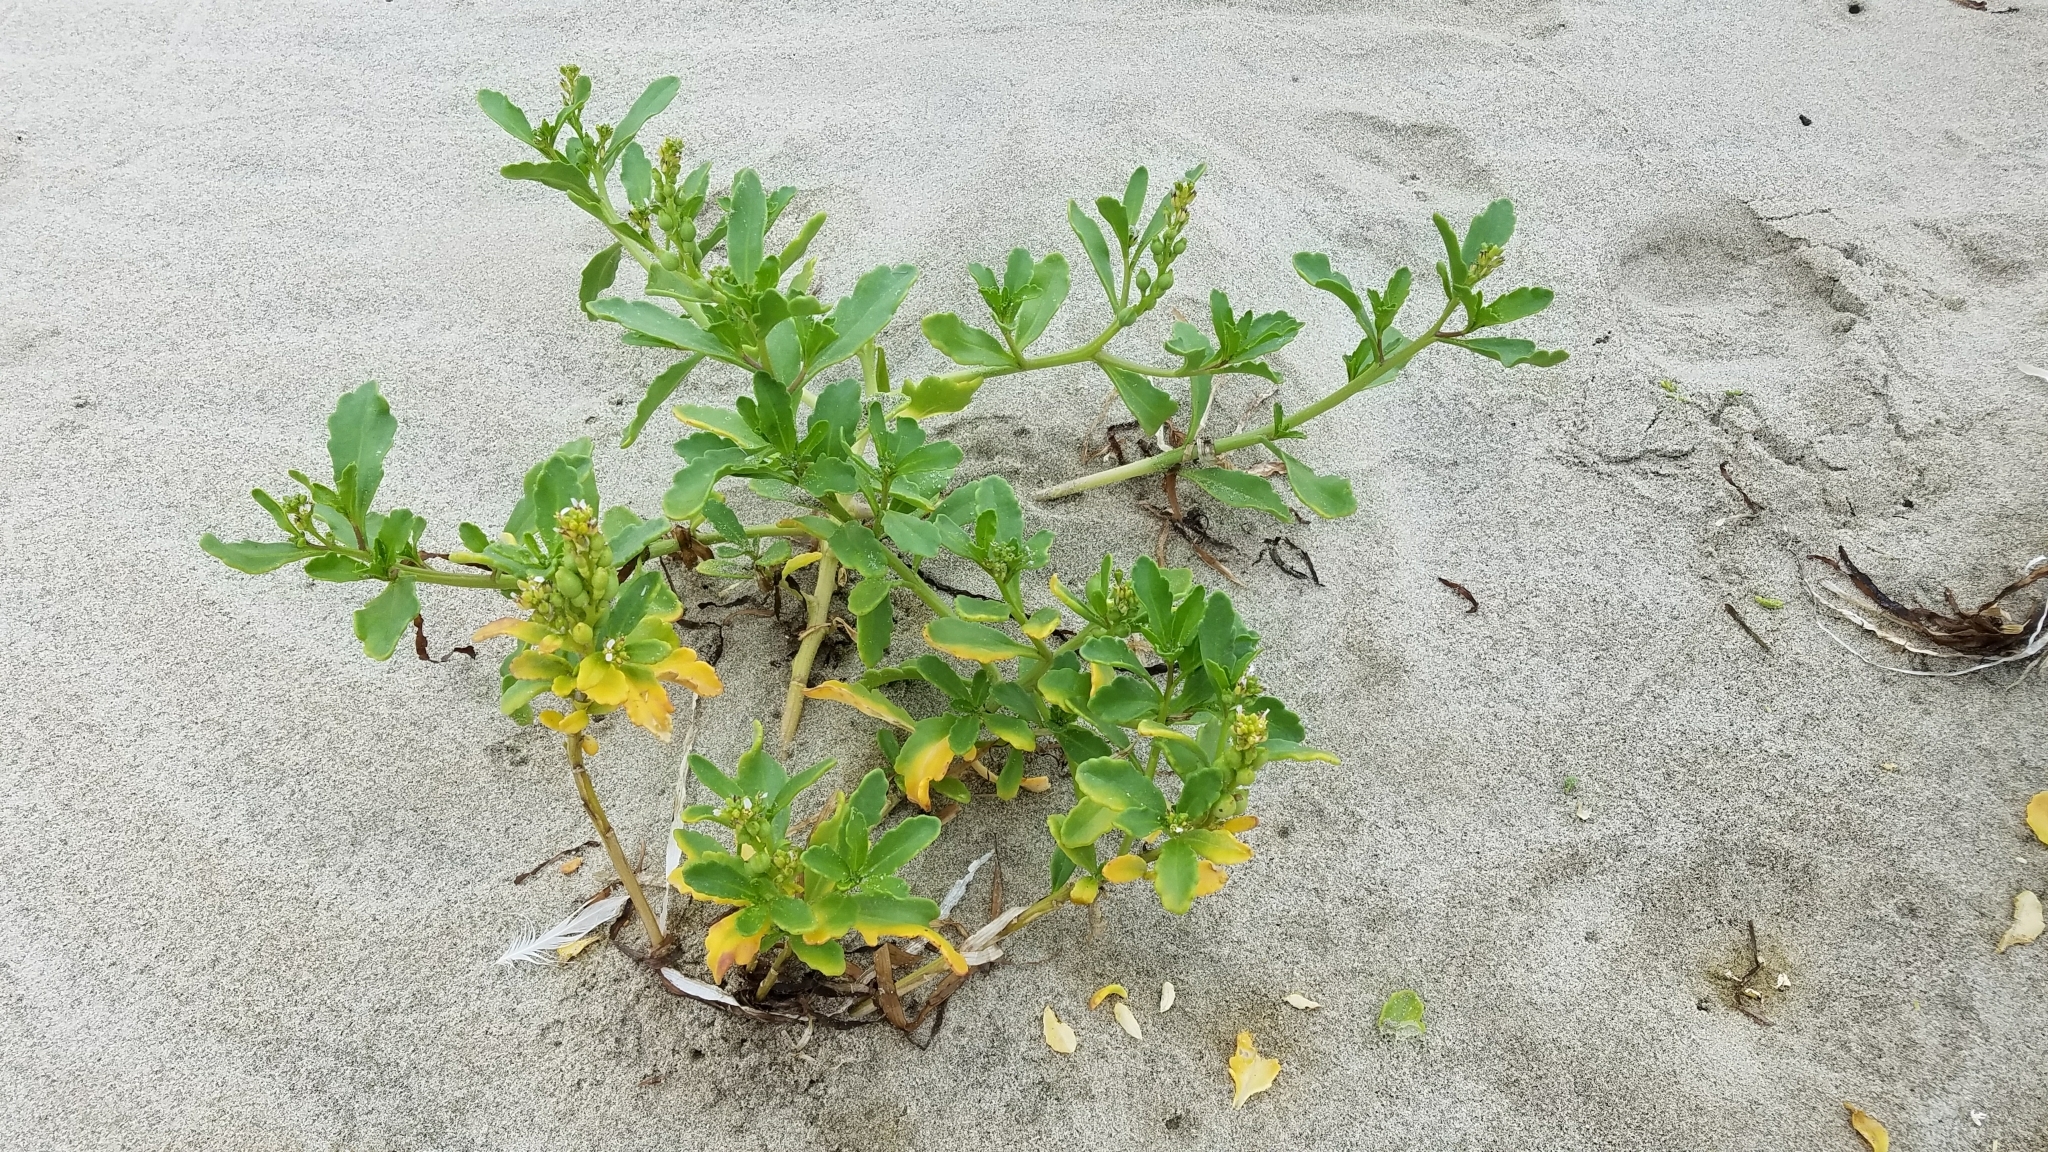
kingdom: Plantae
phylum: Tracheophyta
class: Magnoliopsida
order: Brassicales
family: Brassicaceae
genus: Cakile
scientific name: Cakile edentula
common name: American sea rocket
